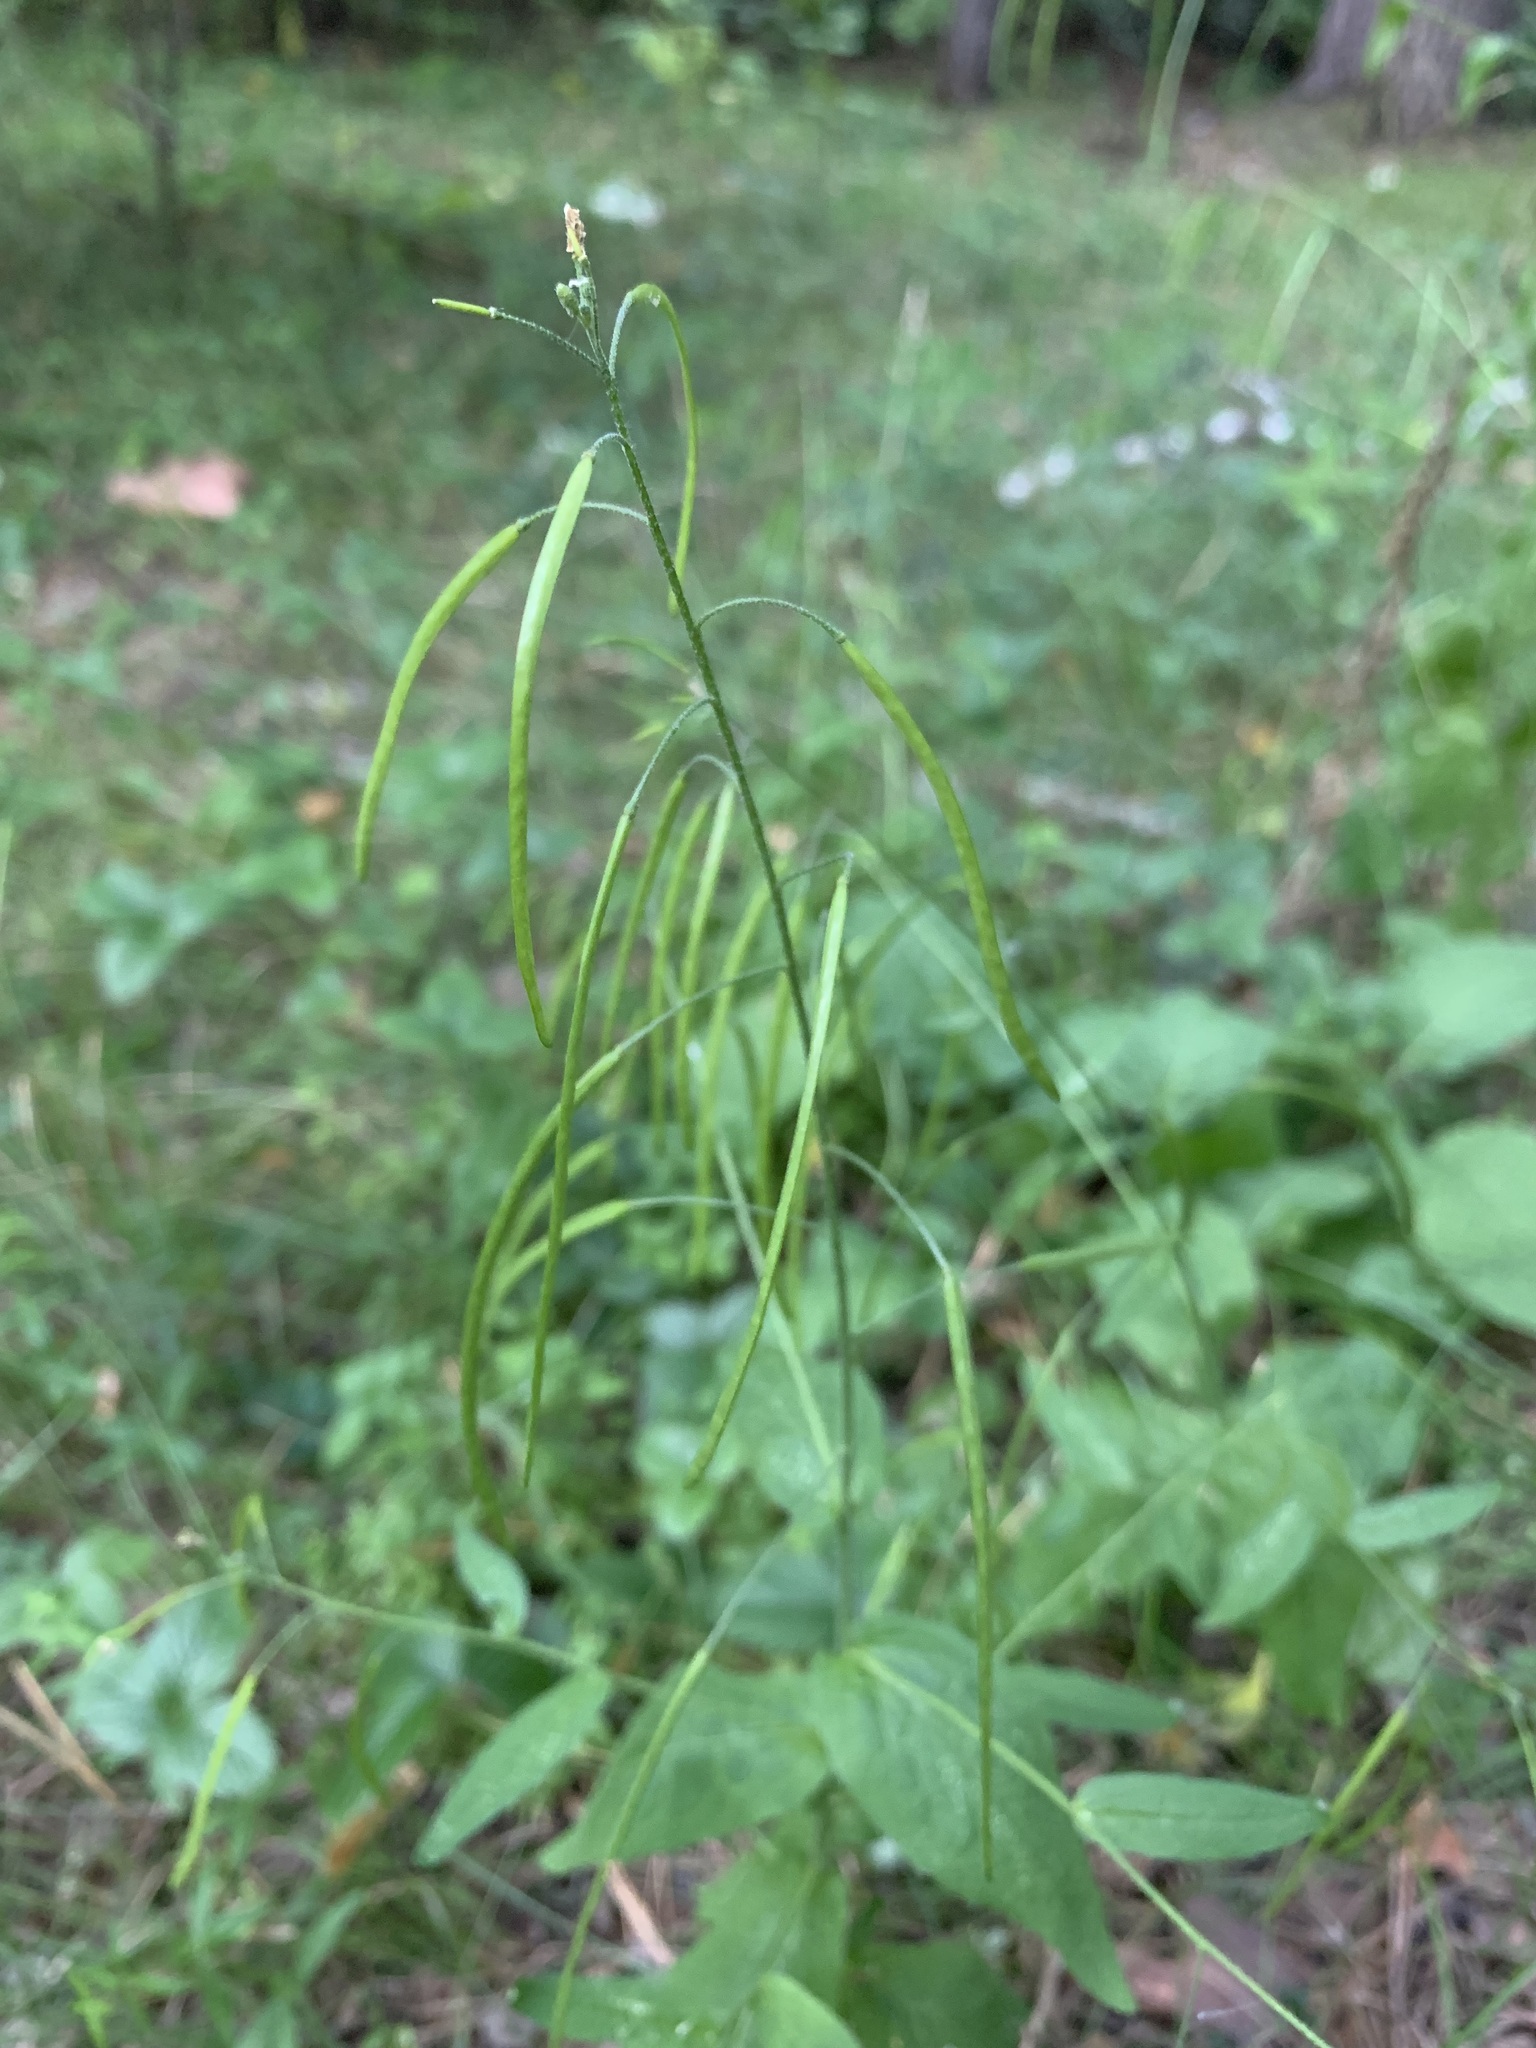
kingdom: Plantae
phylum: Tracheophyta
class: Magnoliopsida
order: Brassicales
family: Brassicaceae
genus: Catolobus
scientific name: Catolobus pendulus
